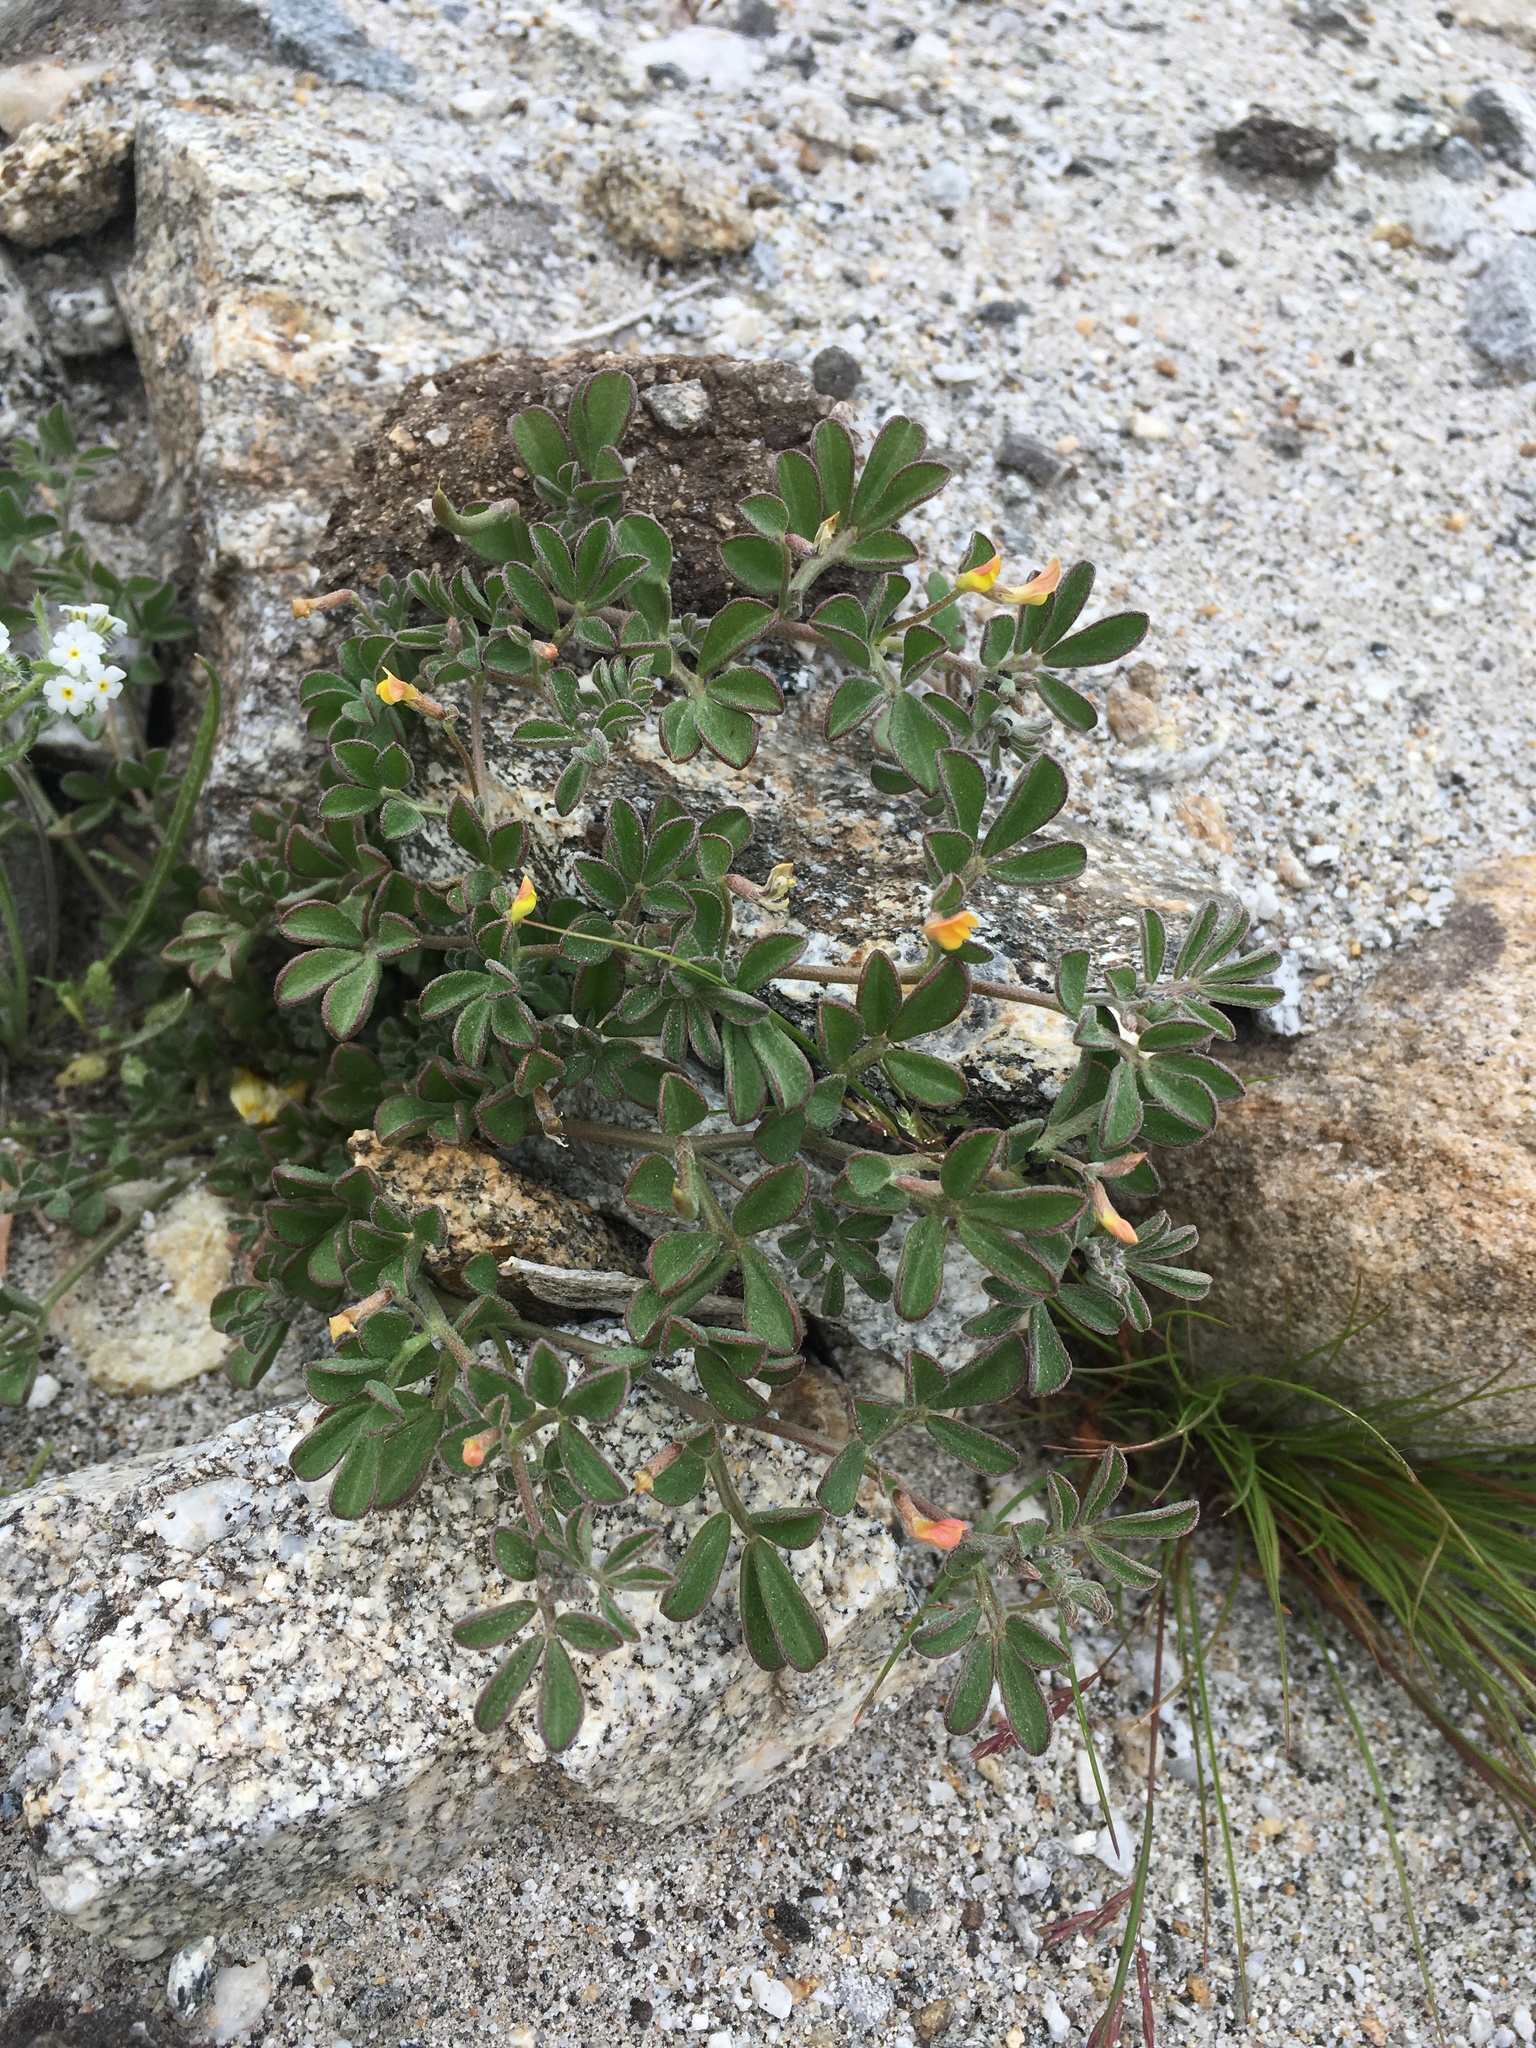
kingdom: Plantae
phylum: Tracheophyta
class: Magnoliopsida
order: Fabales
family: Fabaceae
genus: Acmispon
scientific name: Acmispon strigosus
